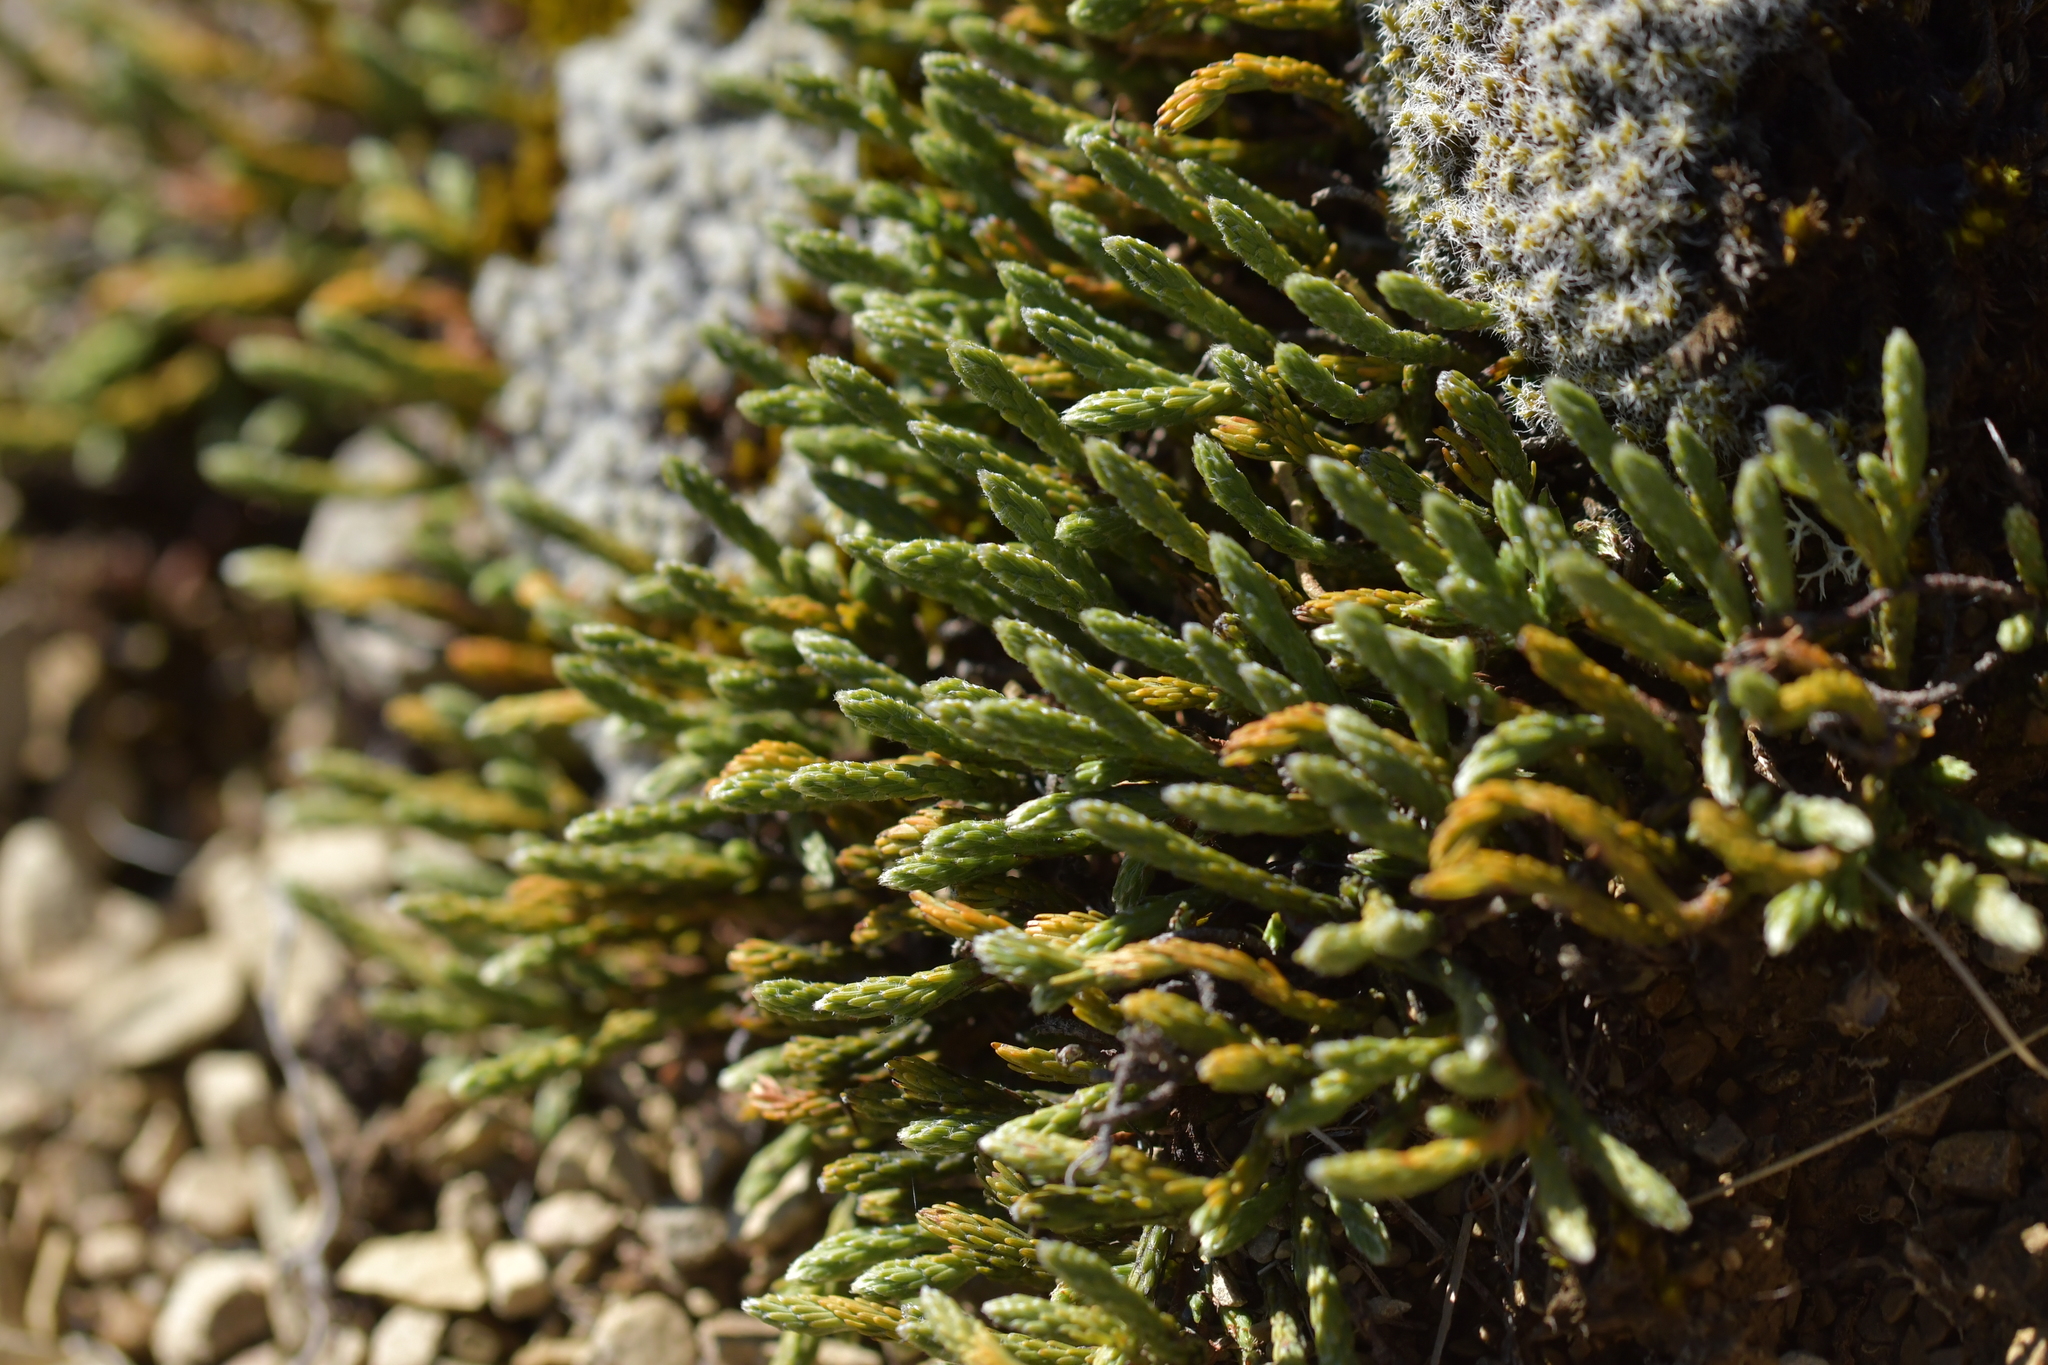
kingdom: Plantae
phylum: Tracheophyta
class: Magnoliopsida
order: Malvales
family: Thymelaeaceae
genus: Kelleria
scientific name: Kelleria dieffenbachii
